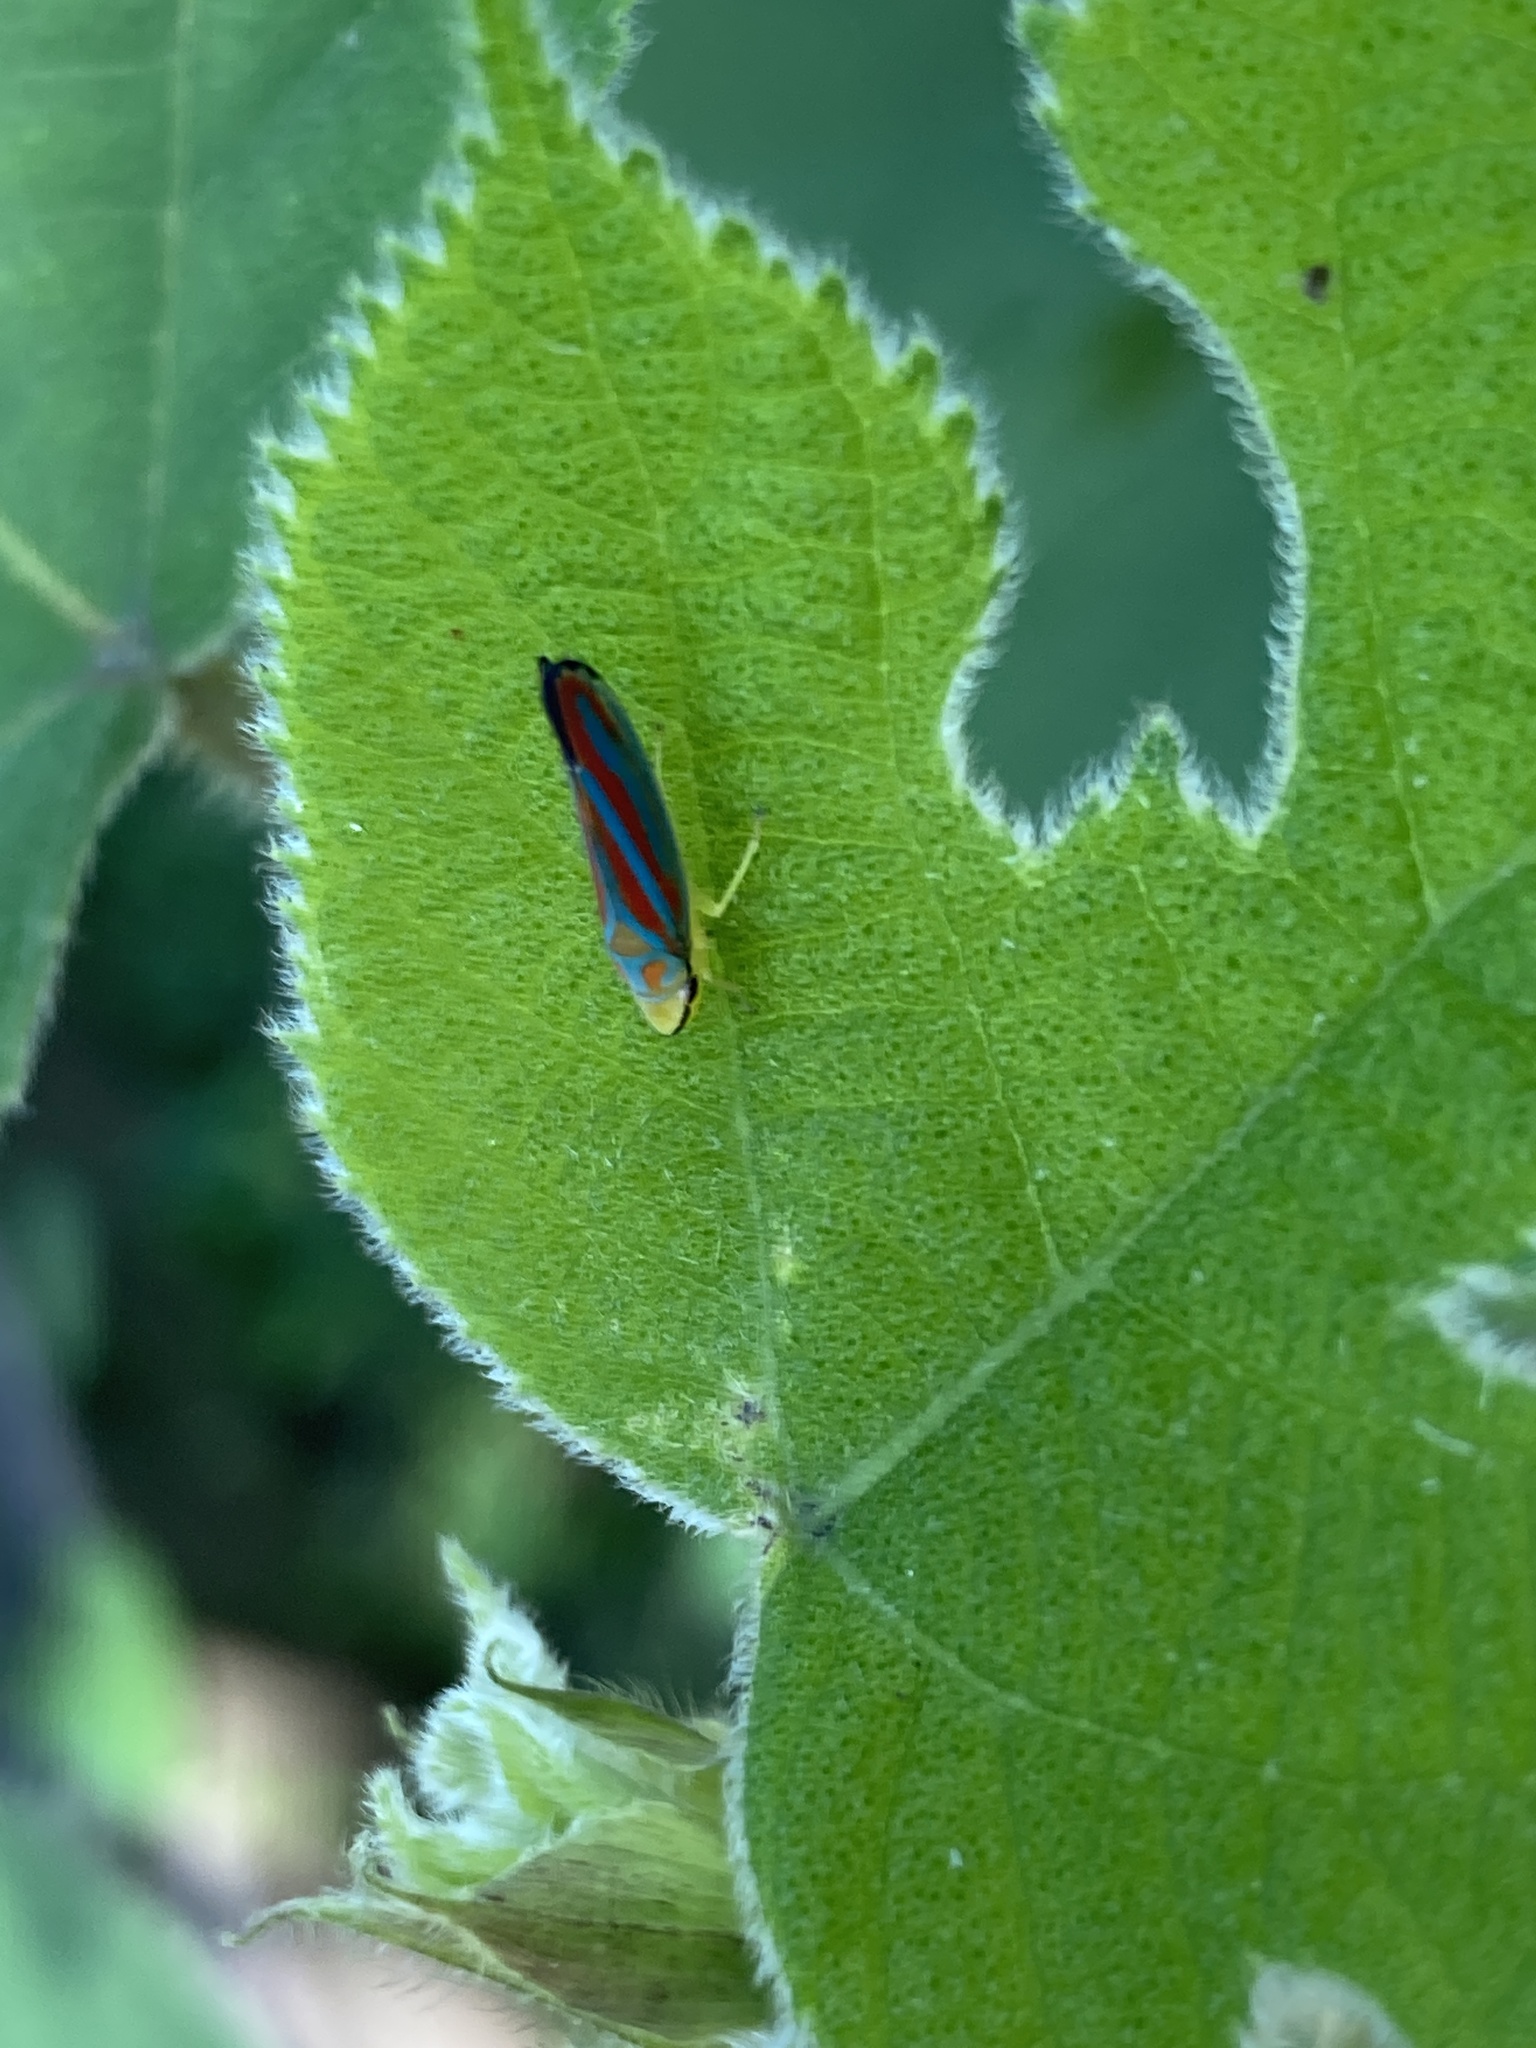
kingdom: Animalia
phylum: Arthropoda
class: Insecta
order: Hemiptera
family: Cicadellidae
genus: Graphocephala
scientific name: Graphocephala coccinea
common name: Candy-striped leafhopper
